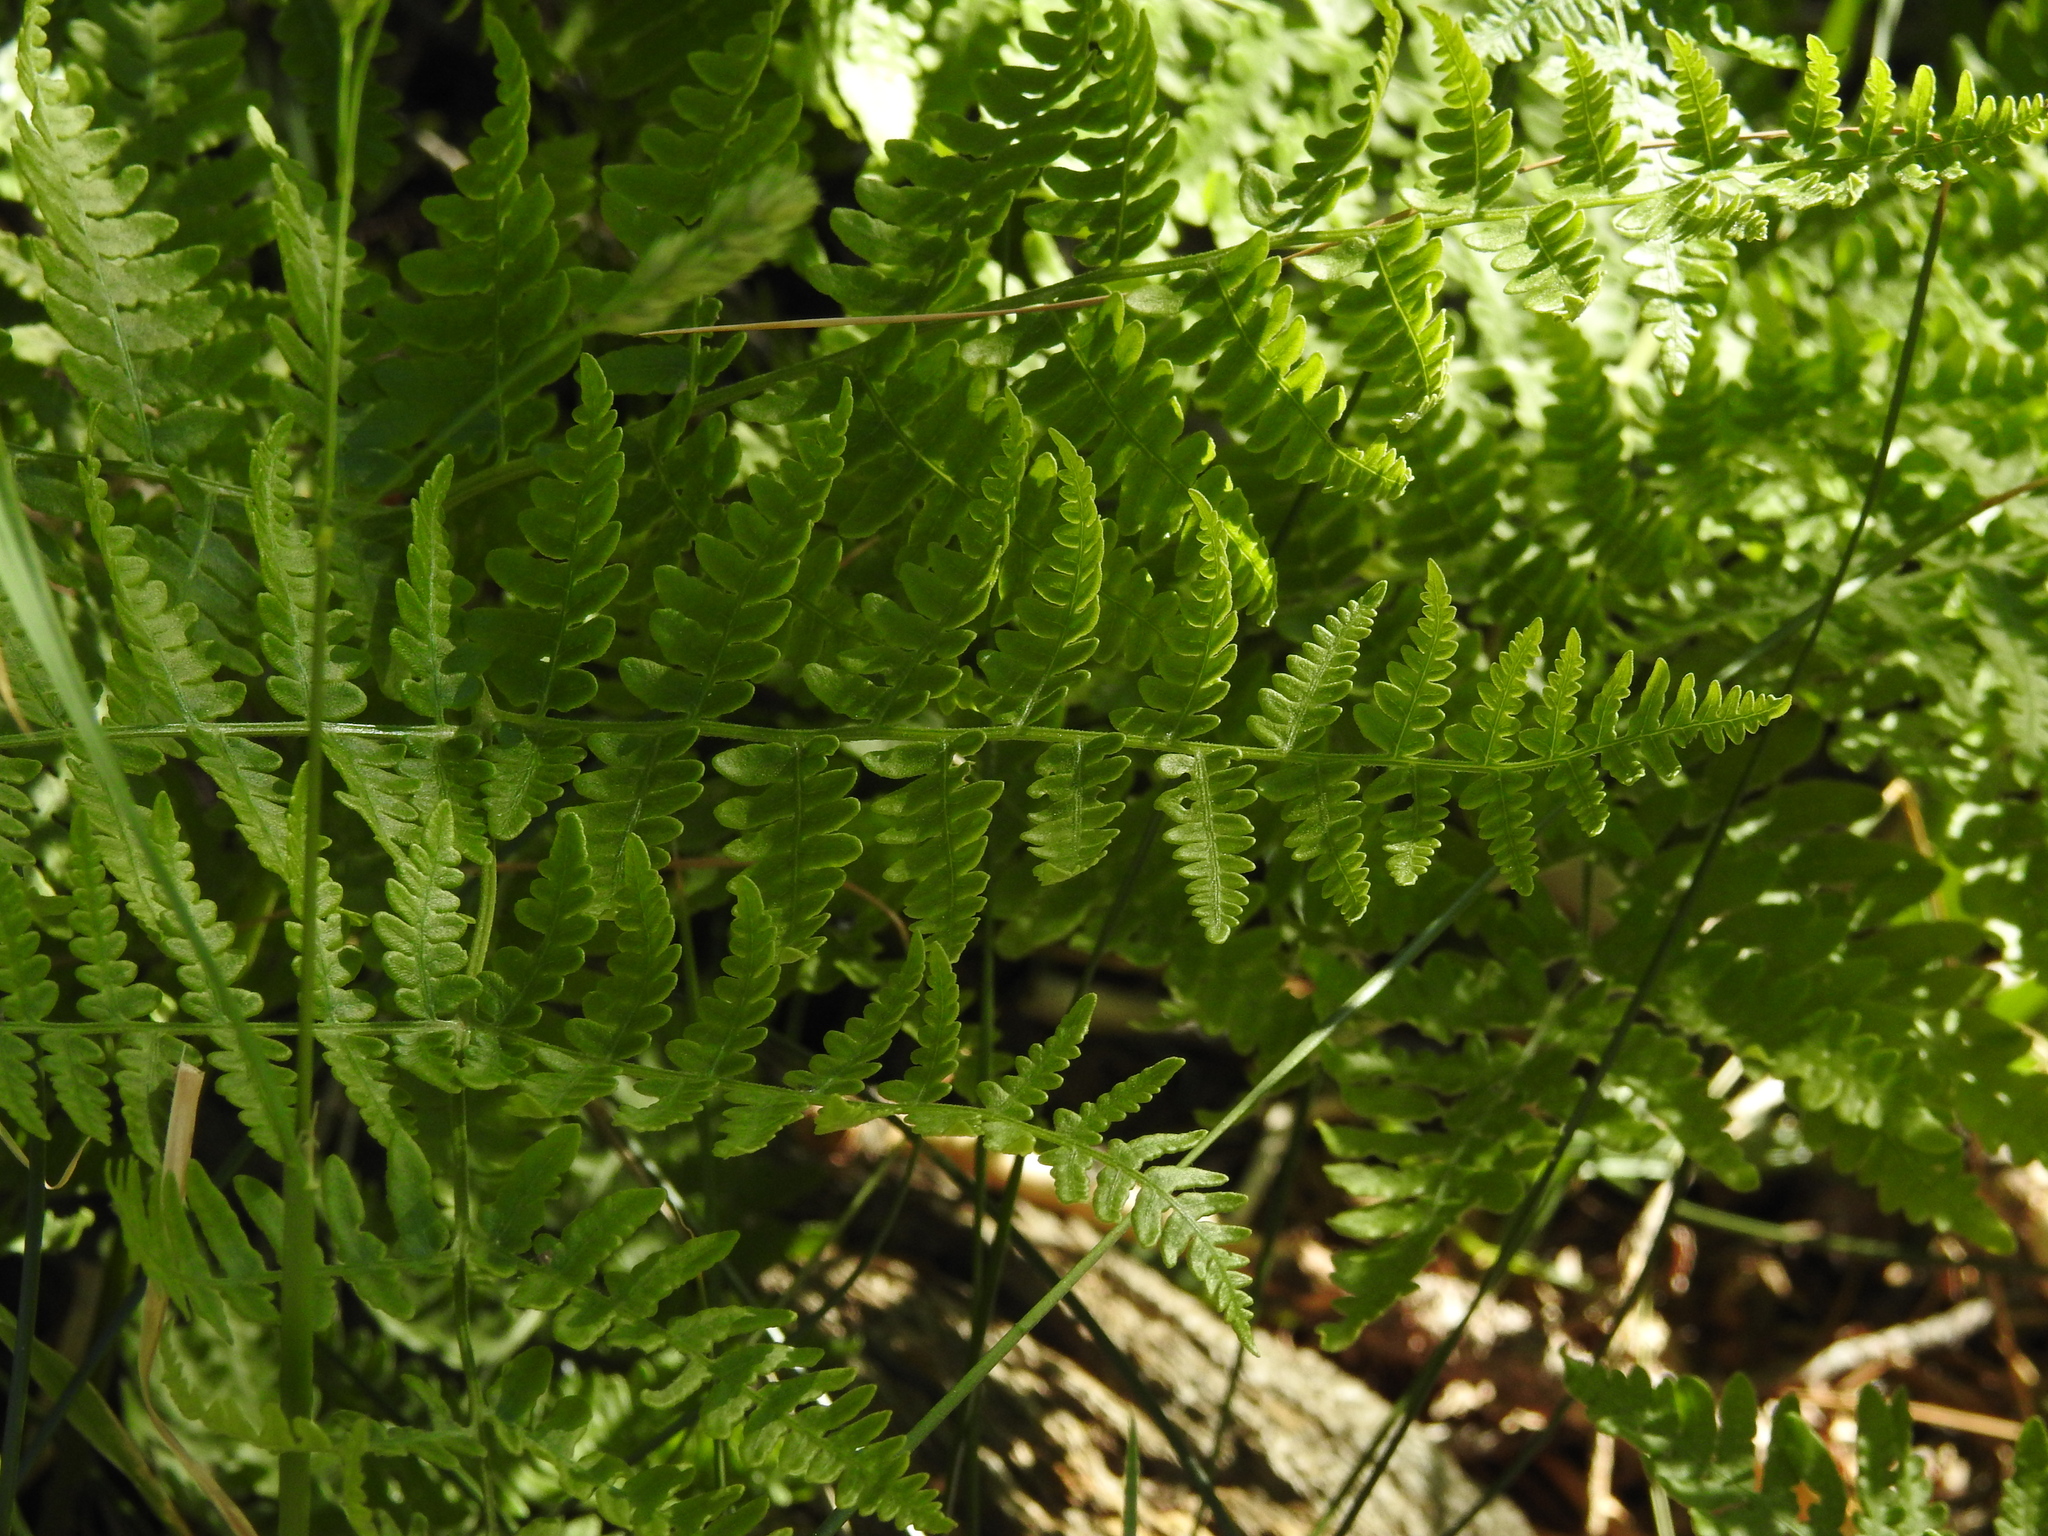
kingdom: Plantae
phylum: Tracheophyta
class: Polypodiopsida
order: Polypodiales
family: Dennstaedtiaceae
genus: Pteridium
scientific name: Pteridium aquilinum
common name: Bracken
